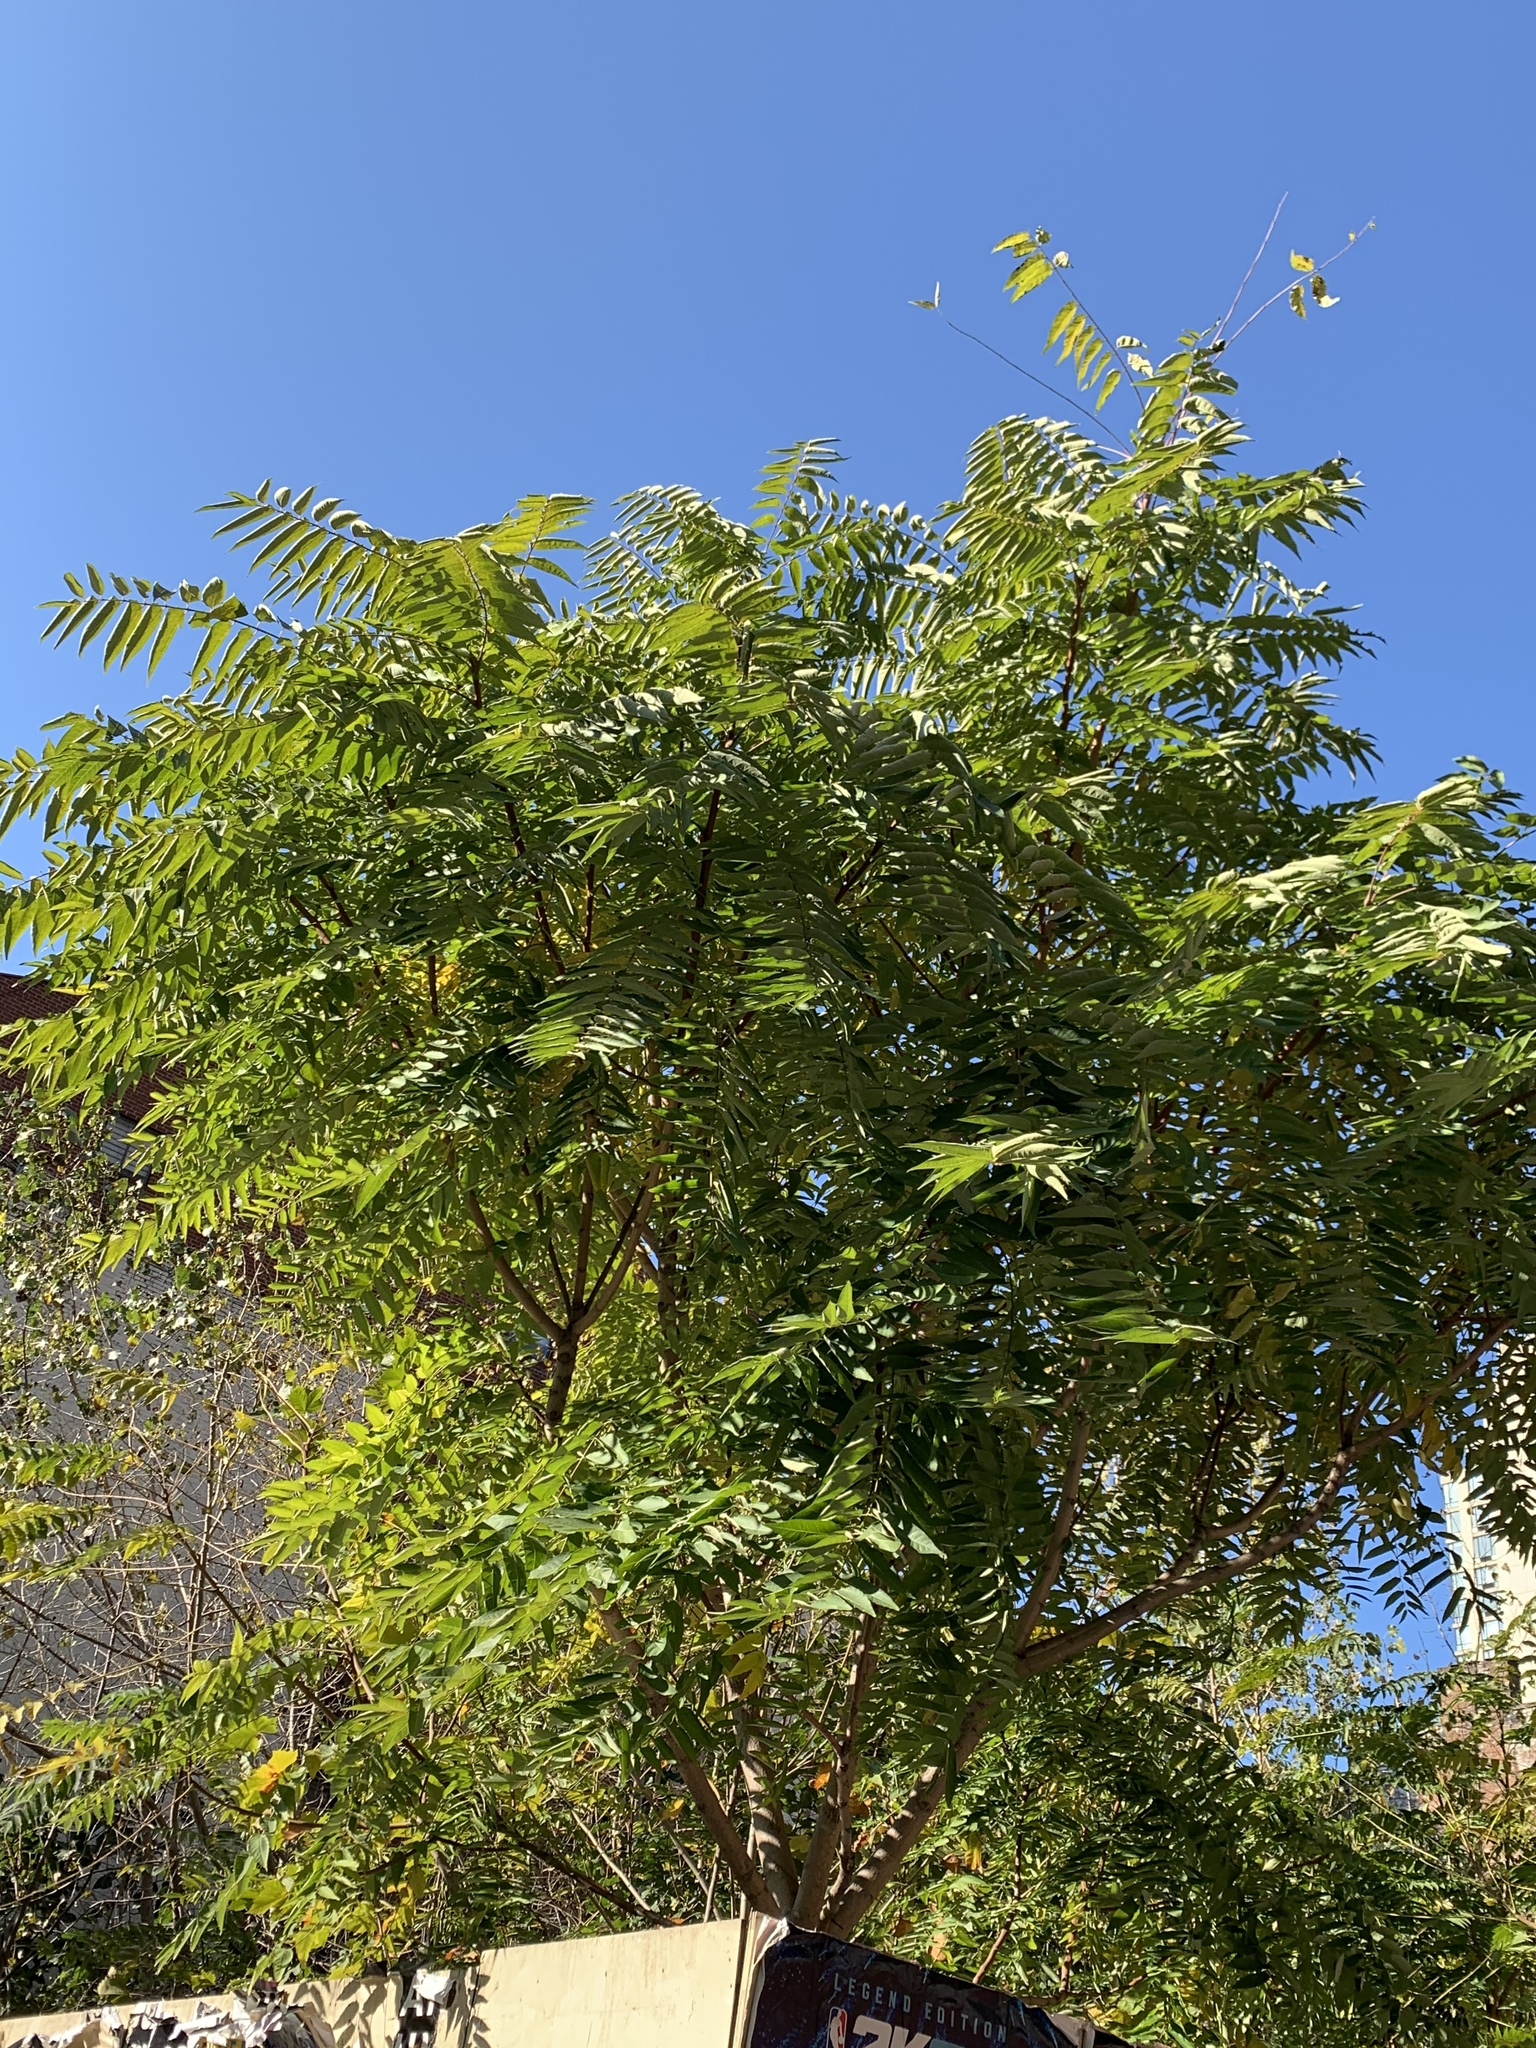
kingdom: Plantae
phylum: Tracheophyta
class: Magnoliopsida
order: Sapindales
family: Simaroubaceae
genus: Ailanthus
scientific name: Ailanthus altissima
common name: Tree-of-heaven
